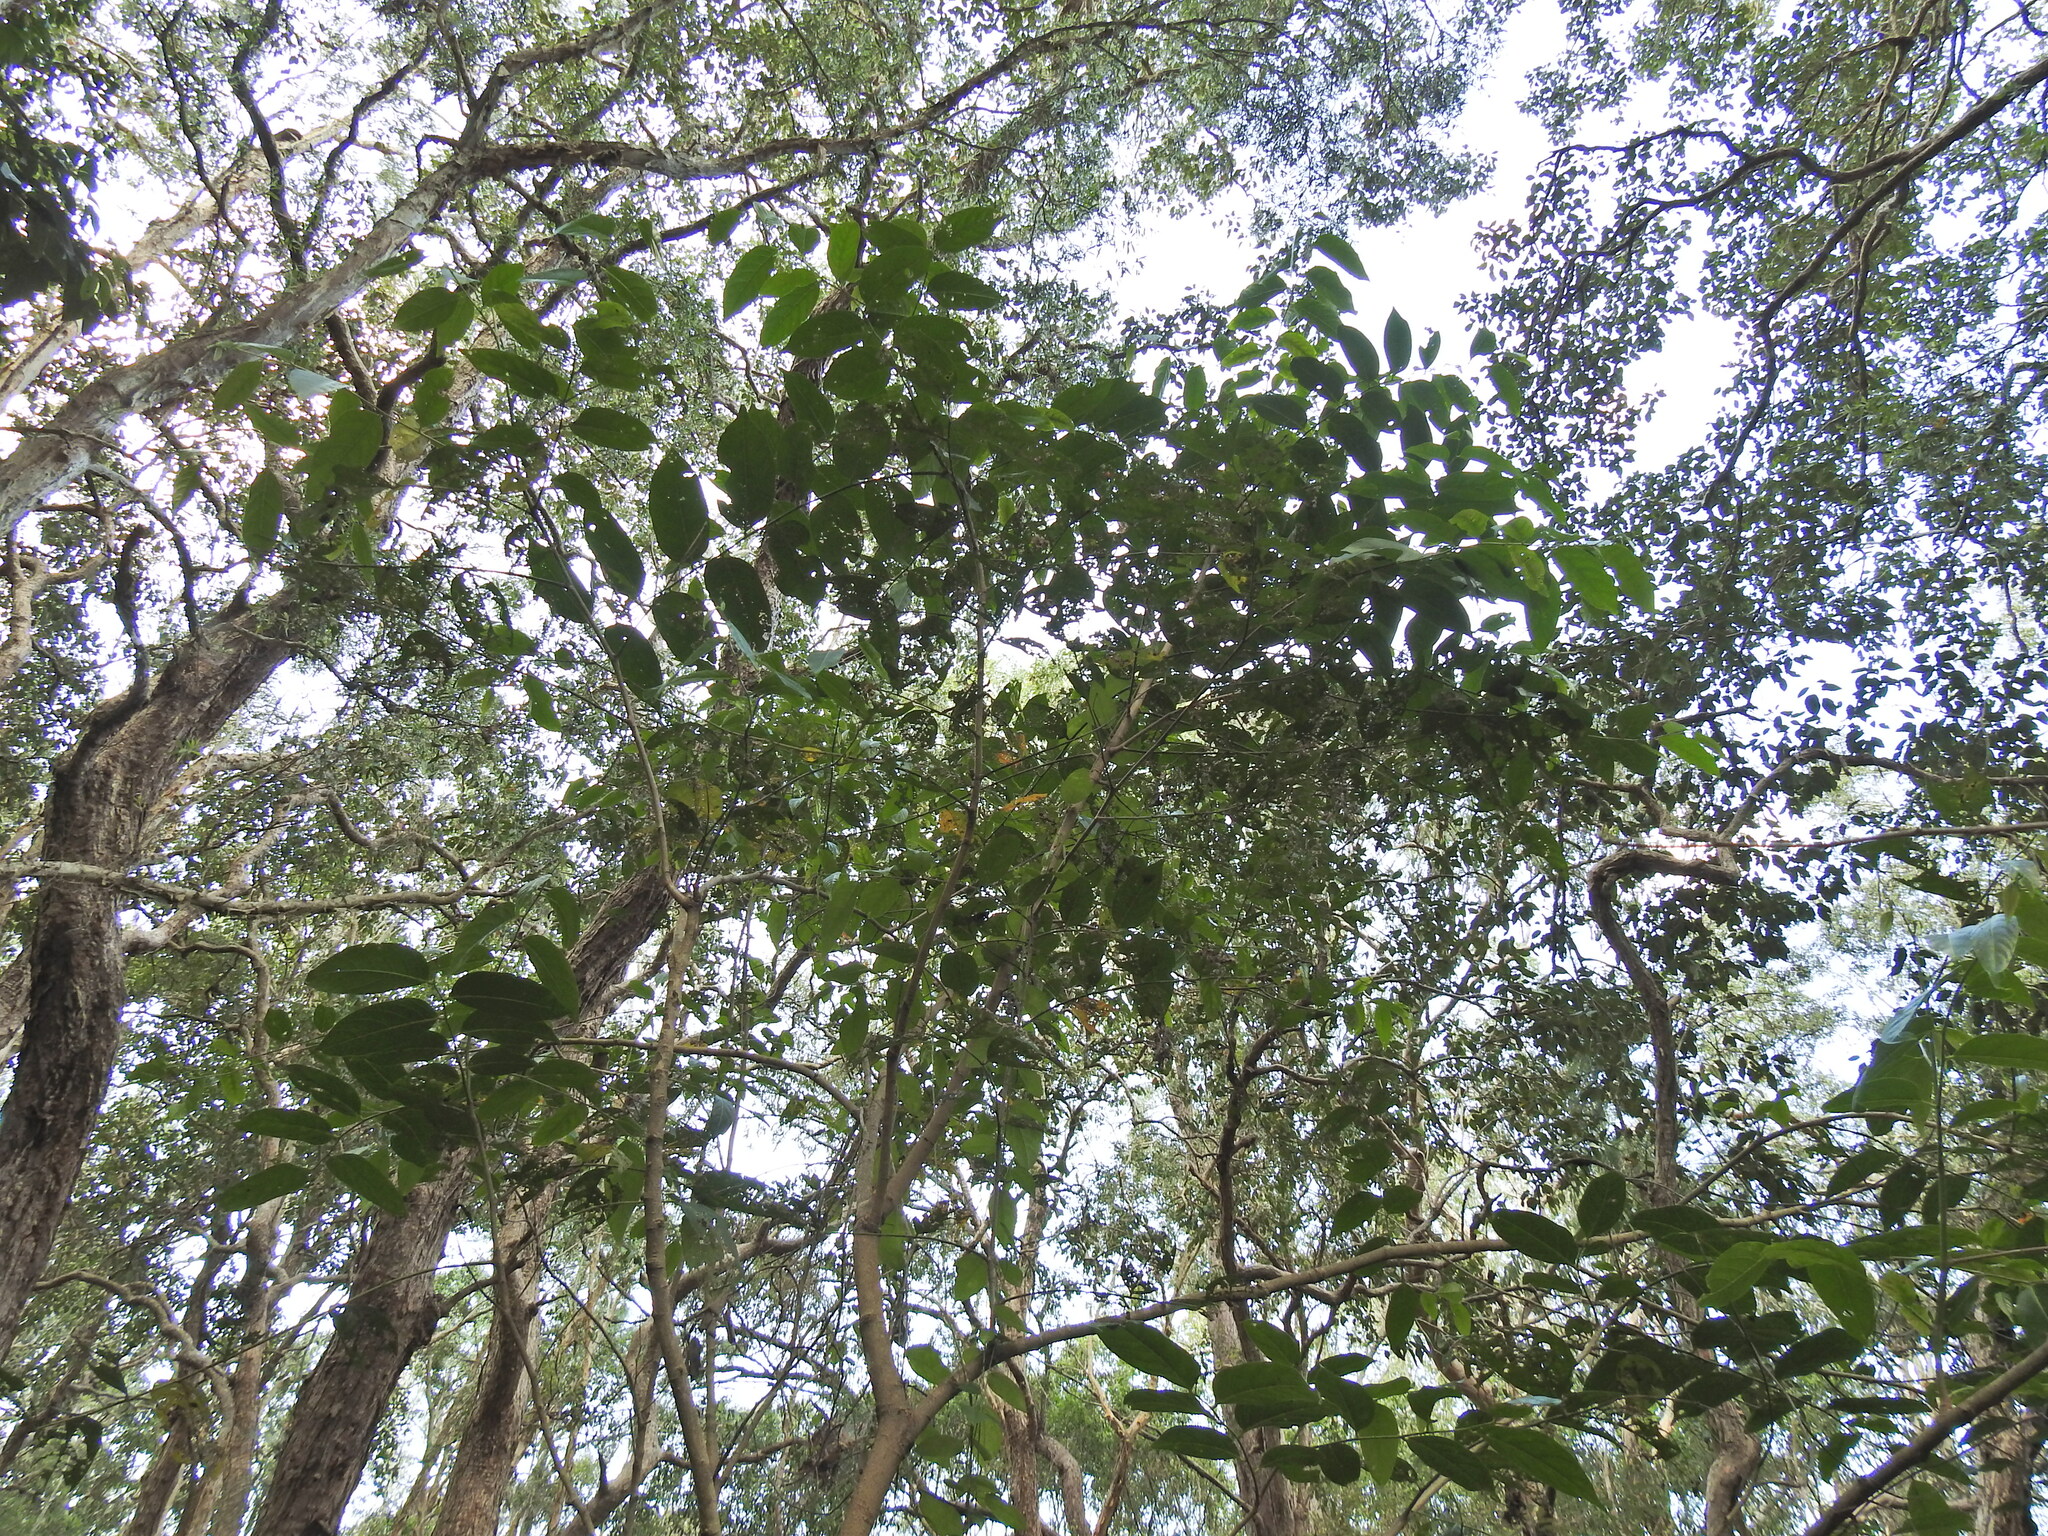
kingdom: Plantae
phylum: Tracheophyta
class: Magnoliopsida
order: Malpighiales
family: Phyllanthaceae
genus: Glochidion
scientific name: Glochidion zeylanicum
